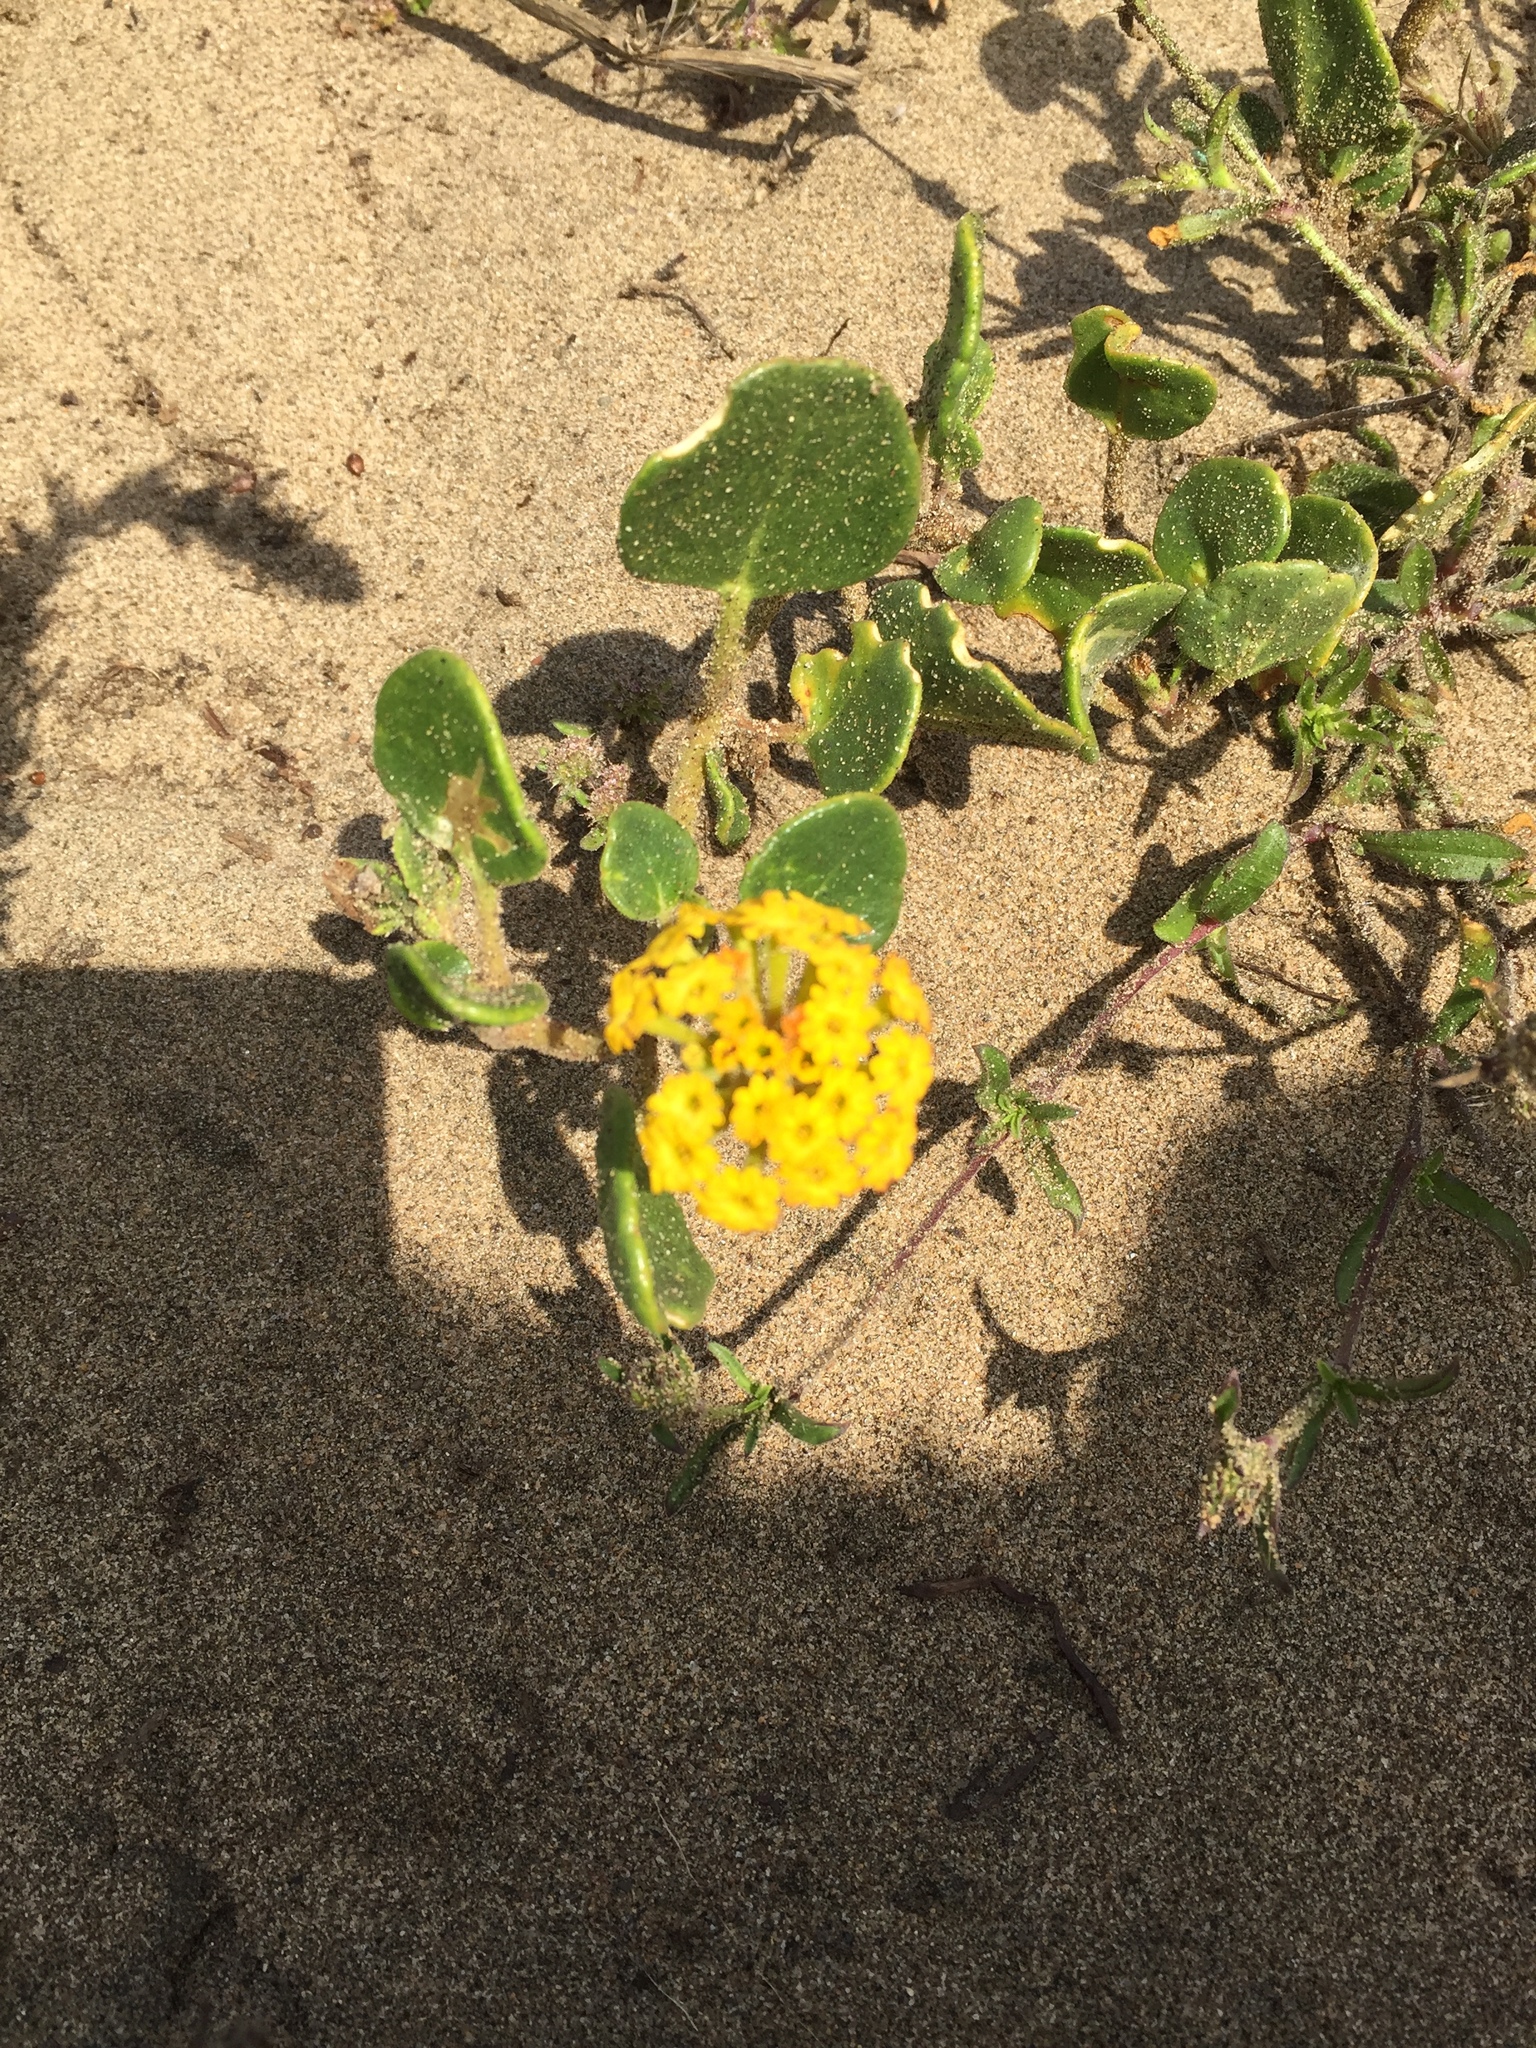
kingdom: Plantae
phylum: Tracheophyta
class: Magnoliopsida
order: Caryophyllales
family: Nyctaginaceae
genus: Abronia
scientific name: Abronia latifolia
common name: Yellow sand-verbena
